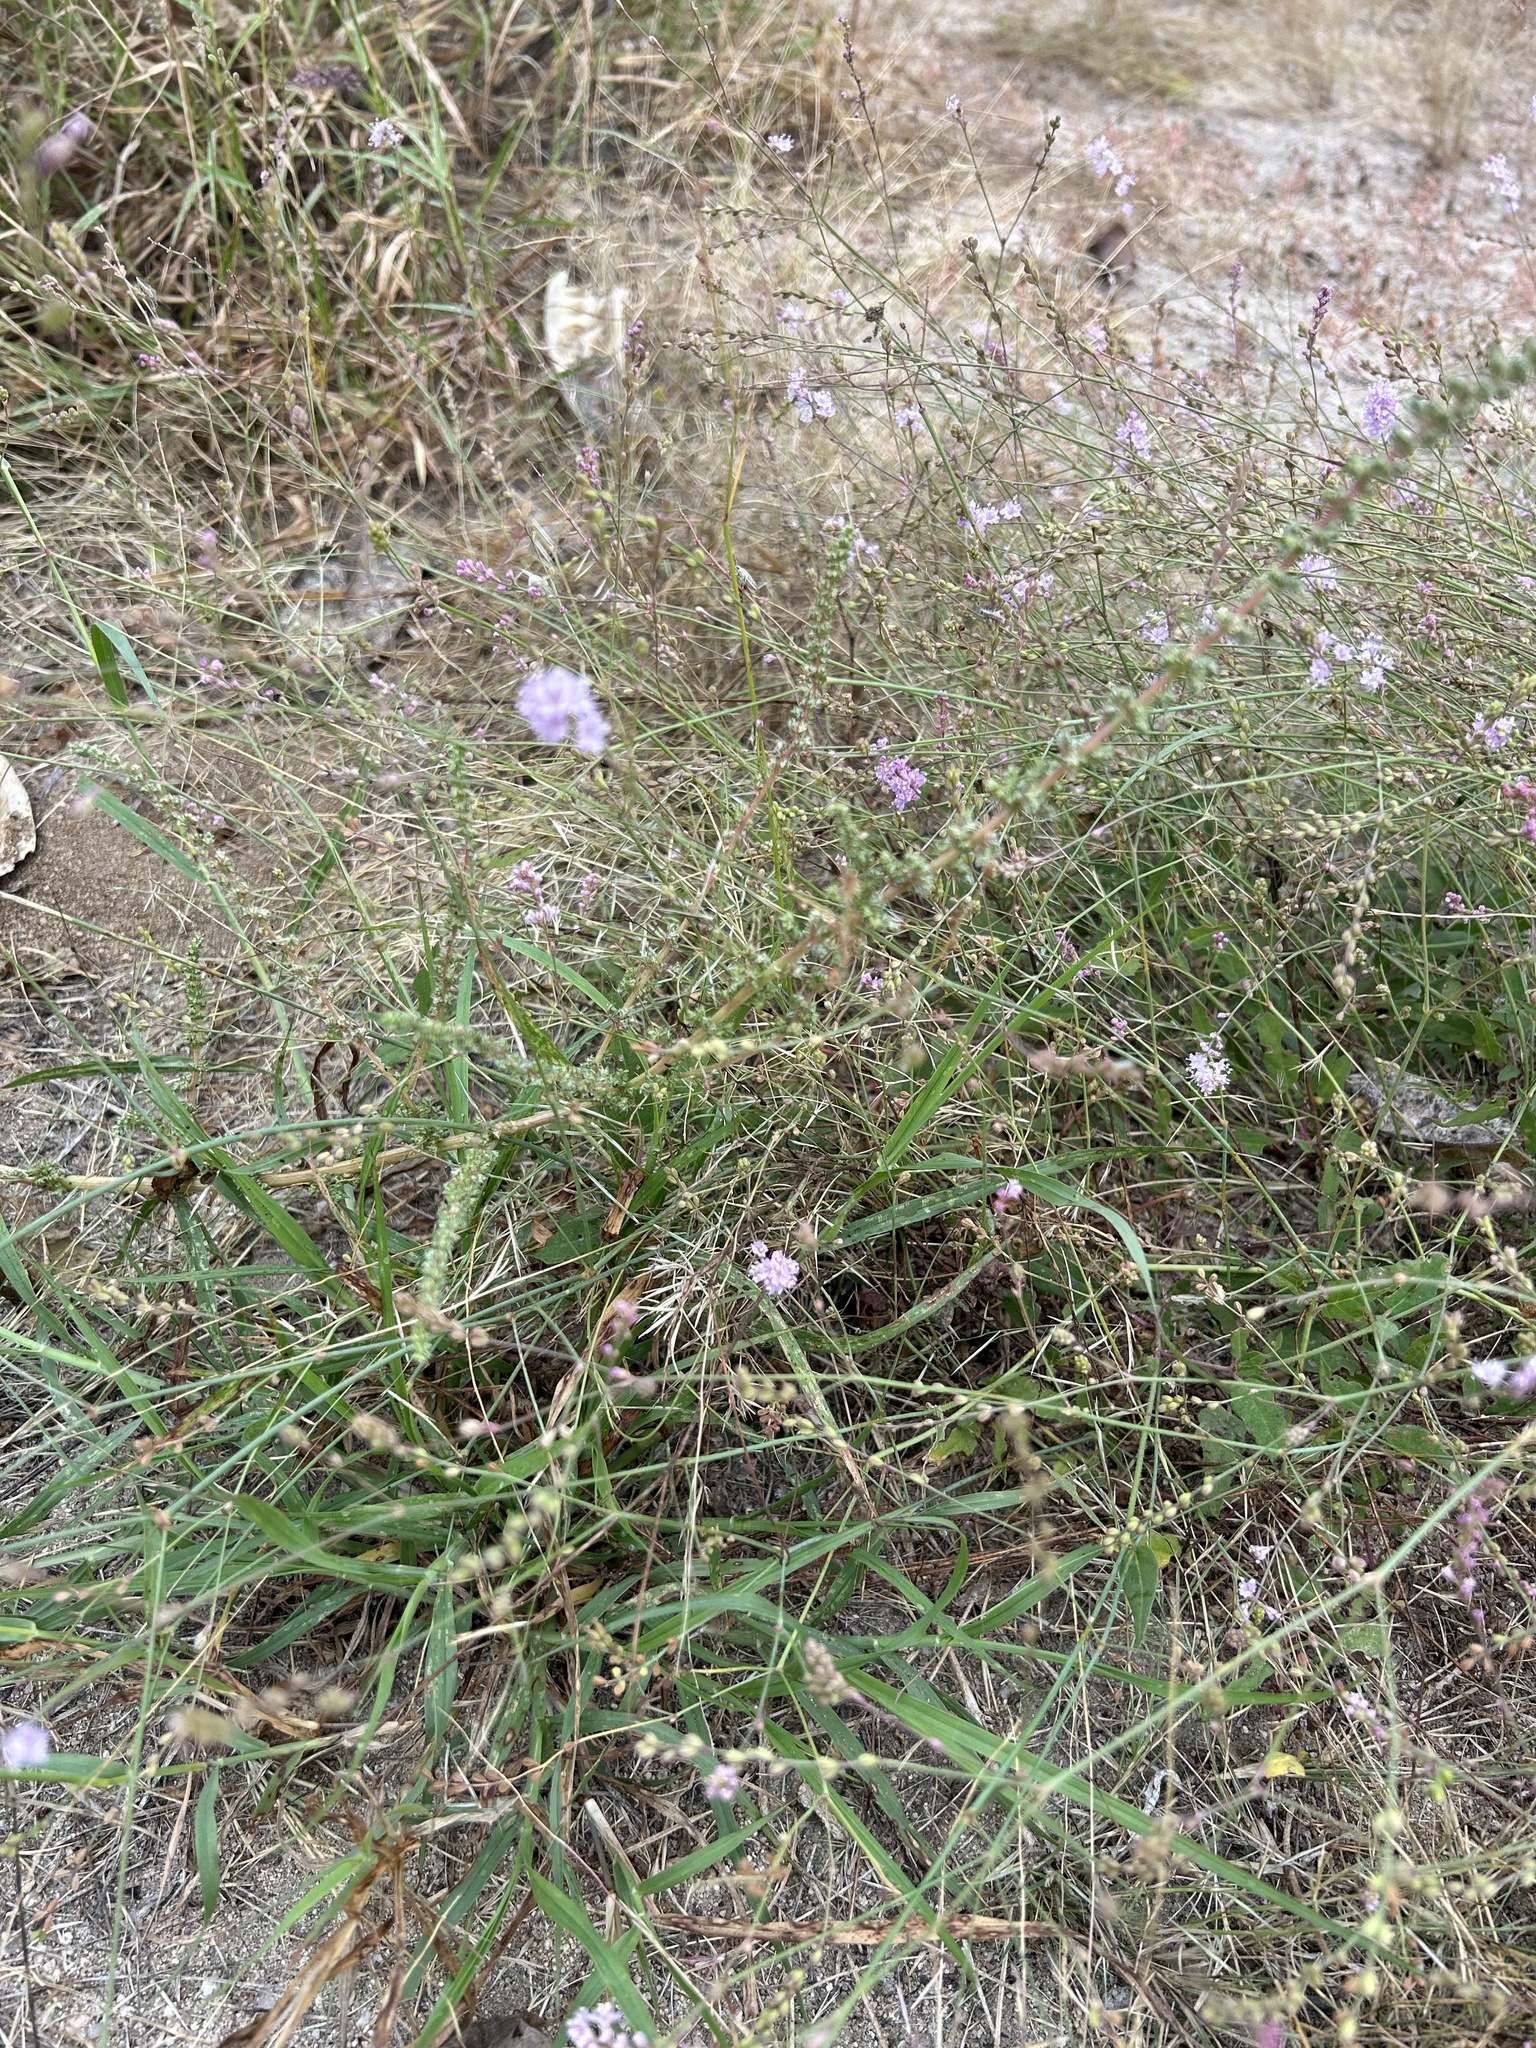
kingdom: Plantae
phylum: Tracheophyta
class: Magnoliopsida
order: Caryophyllales
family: Nyctaginaceae
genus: Boerhavia
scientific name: Boerhavia xantii
